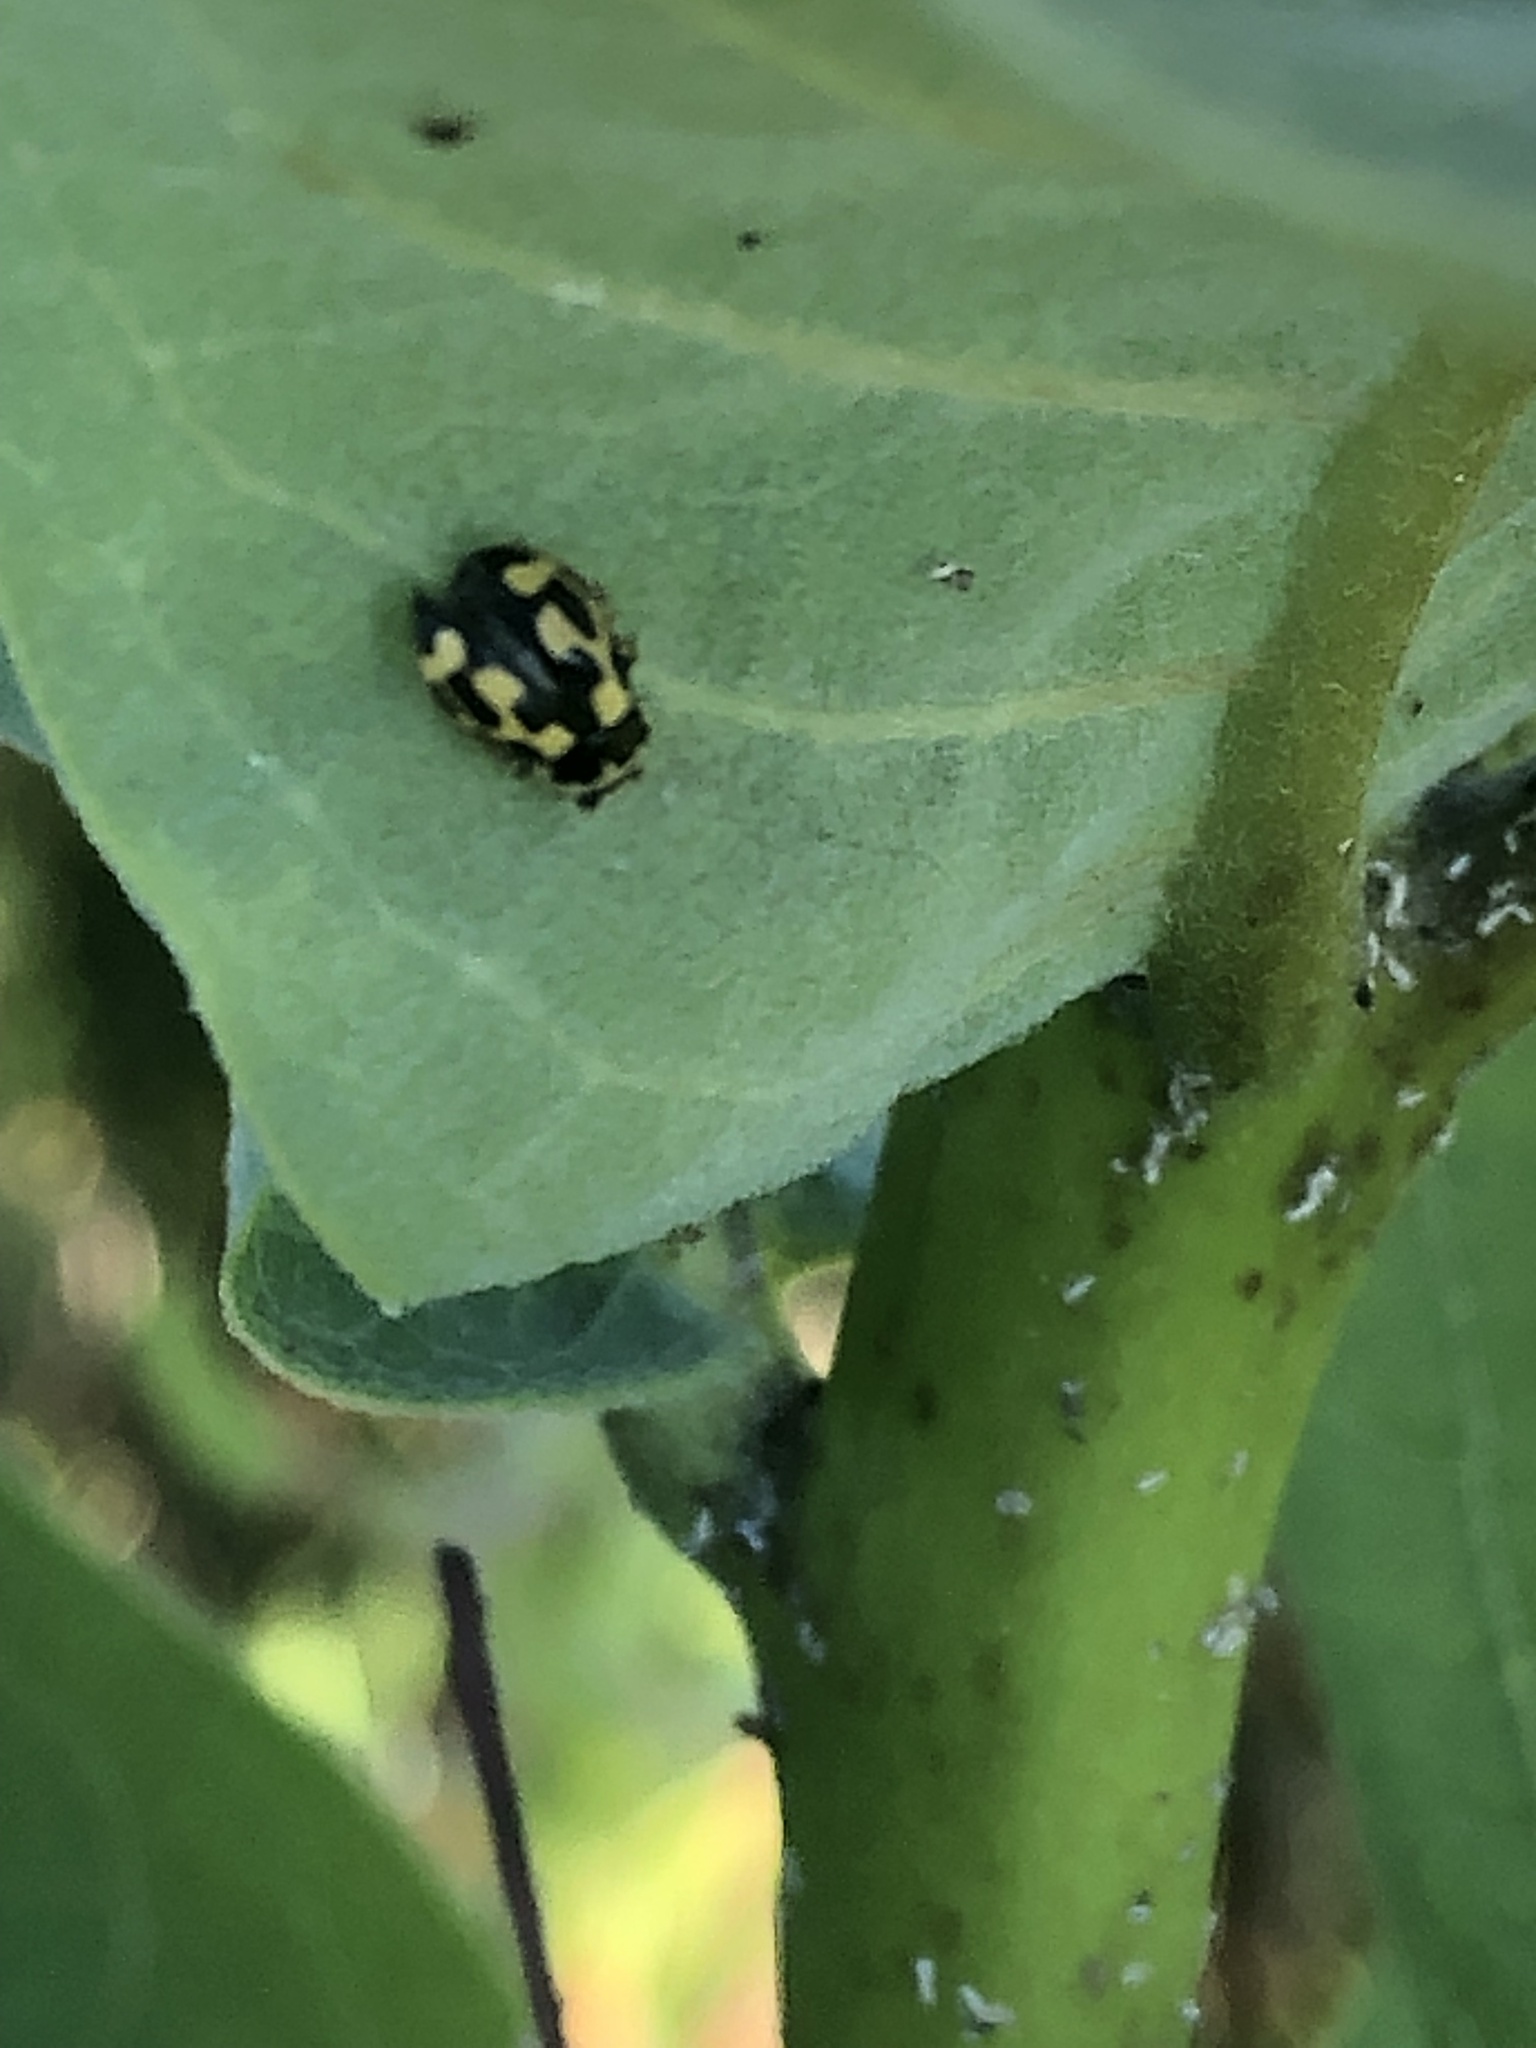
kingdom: Animalia
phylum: Arthropoda
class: Insecta
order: Coleoptera
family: Coccinellidae
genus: Propylaea
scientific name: Propylaea quatuordecimpunctata
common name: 14-spotted ladybird beetle
